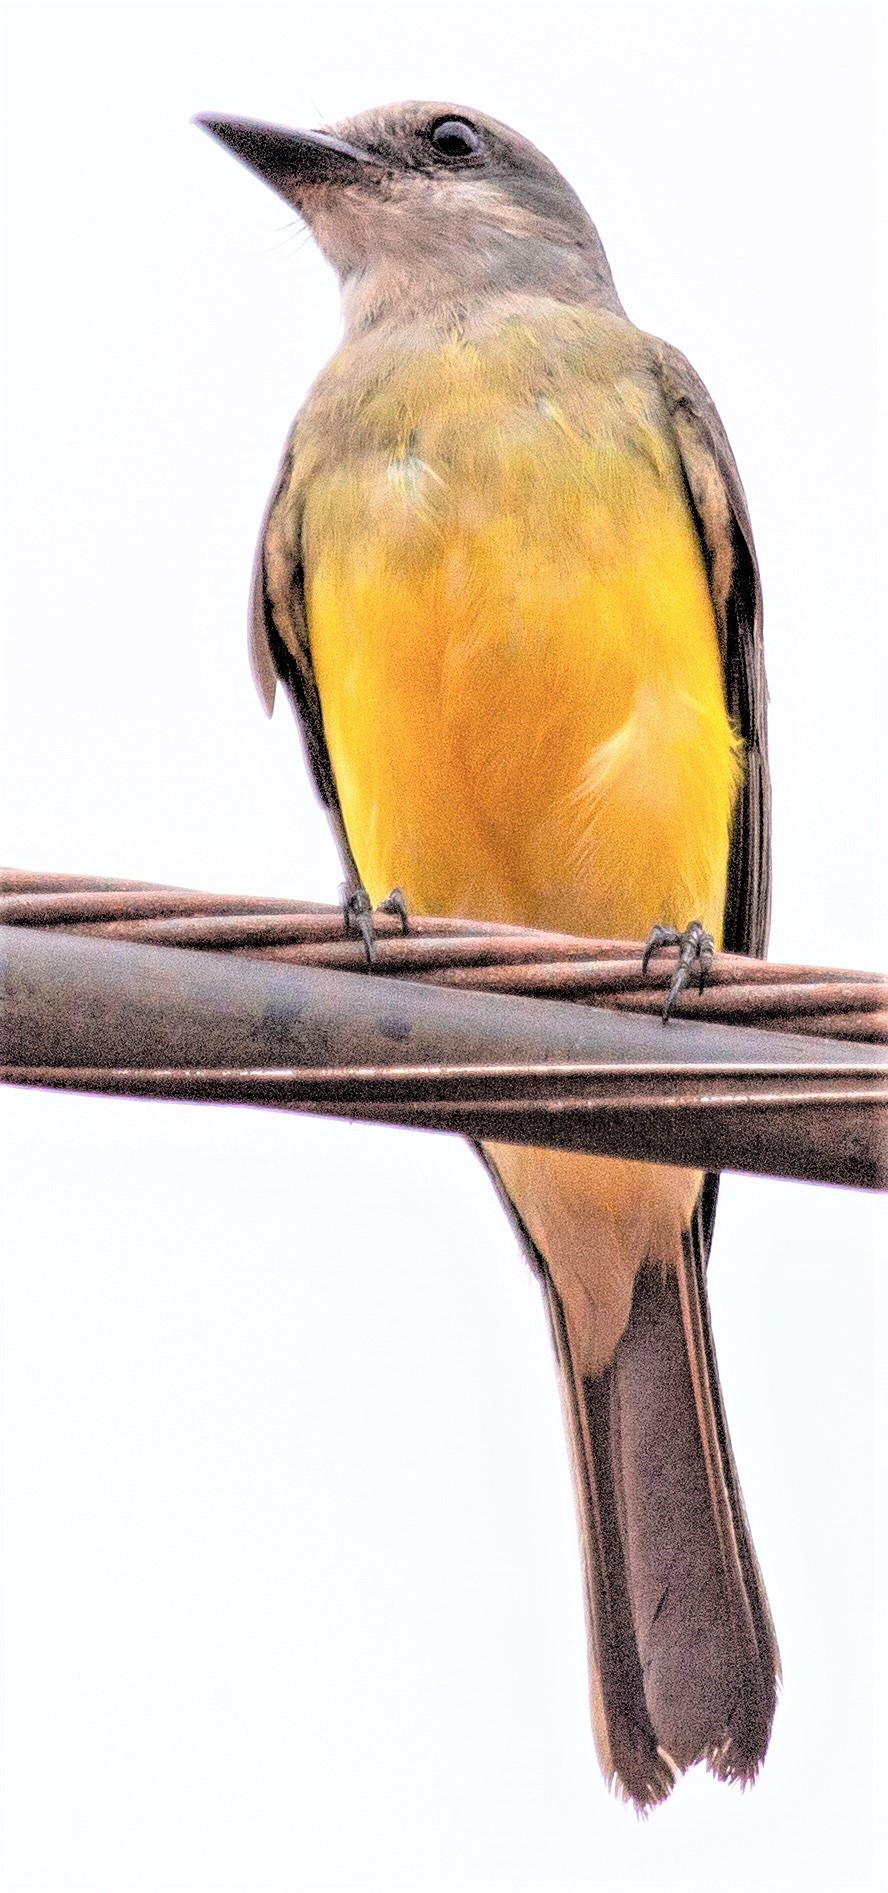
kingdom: Animalia
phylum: Chordata
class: Aves
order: Passeriformes
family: Tyrannidae
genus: Tyrannus
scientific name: Tyrannus melancholicus
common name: Tropical kingbird
